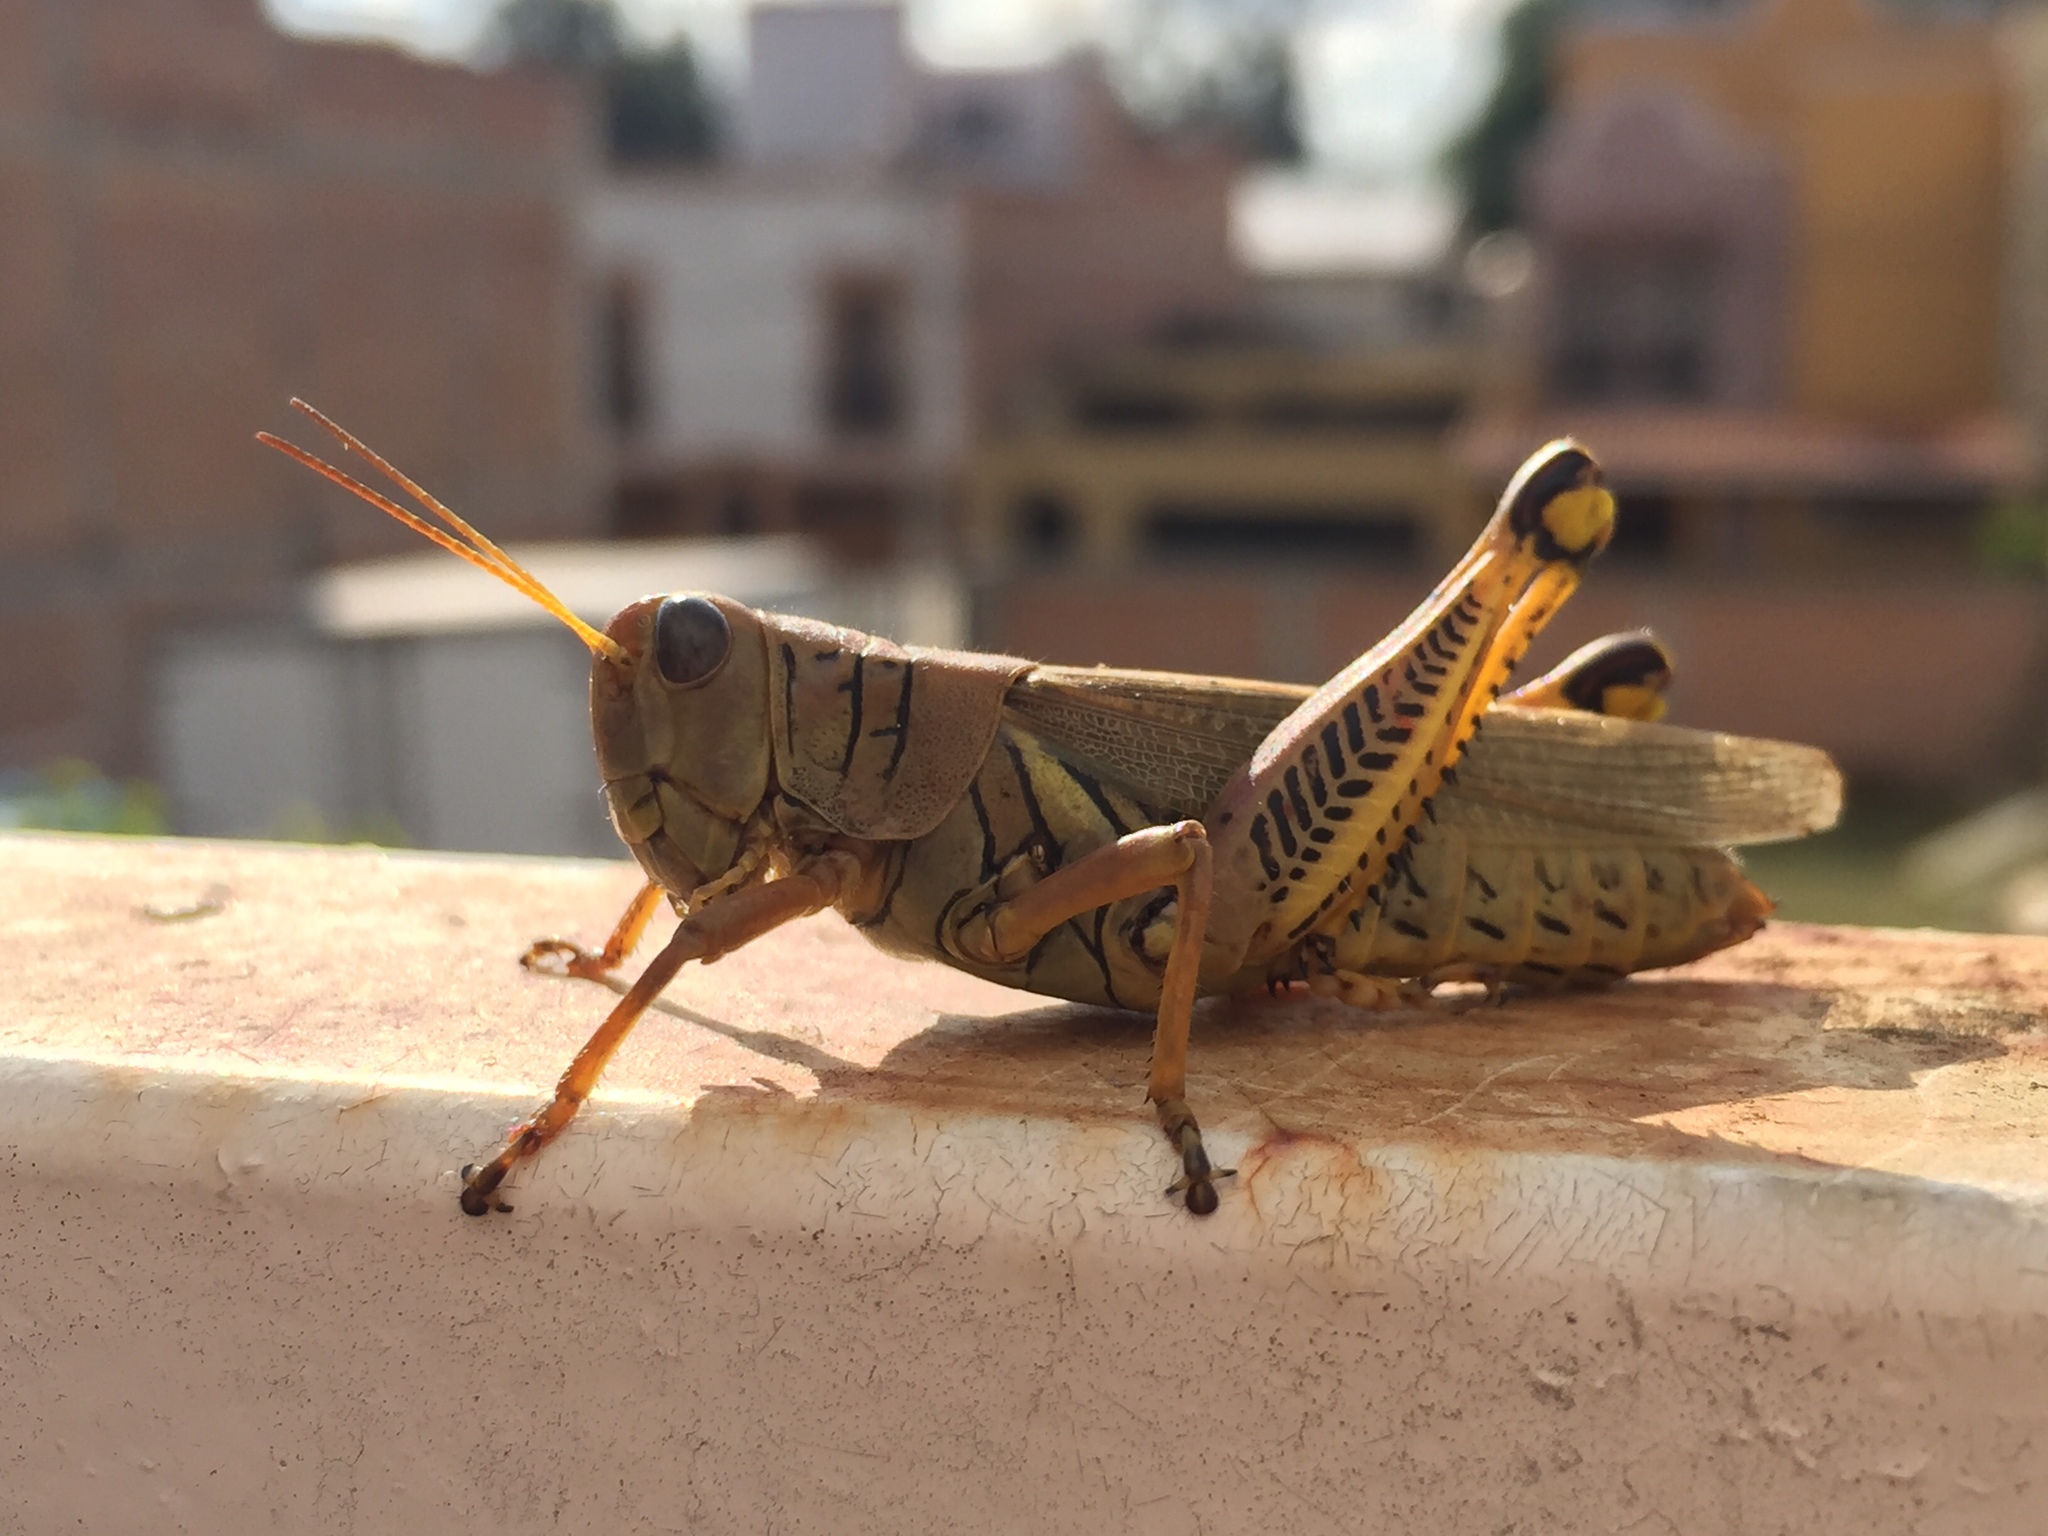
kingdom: Animalia
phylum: Arthropoda
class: Insecta
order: Orthoptera
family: Acrididae
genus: Melanoplus
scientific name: Melanoplus differentialis
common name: Differential grasshopper
